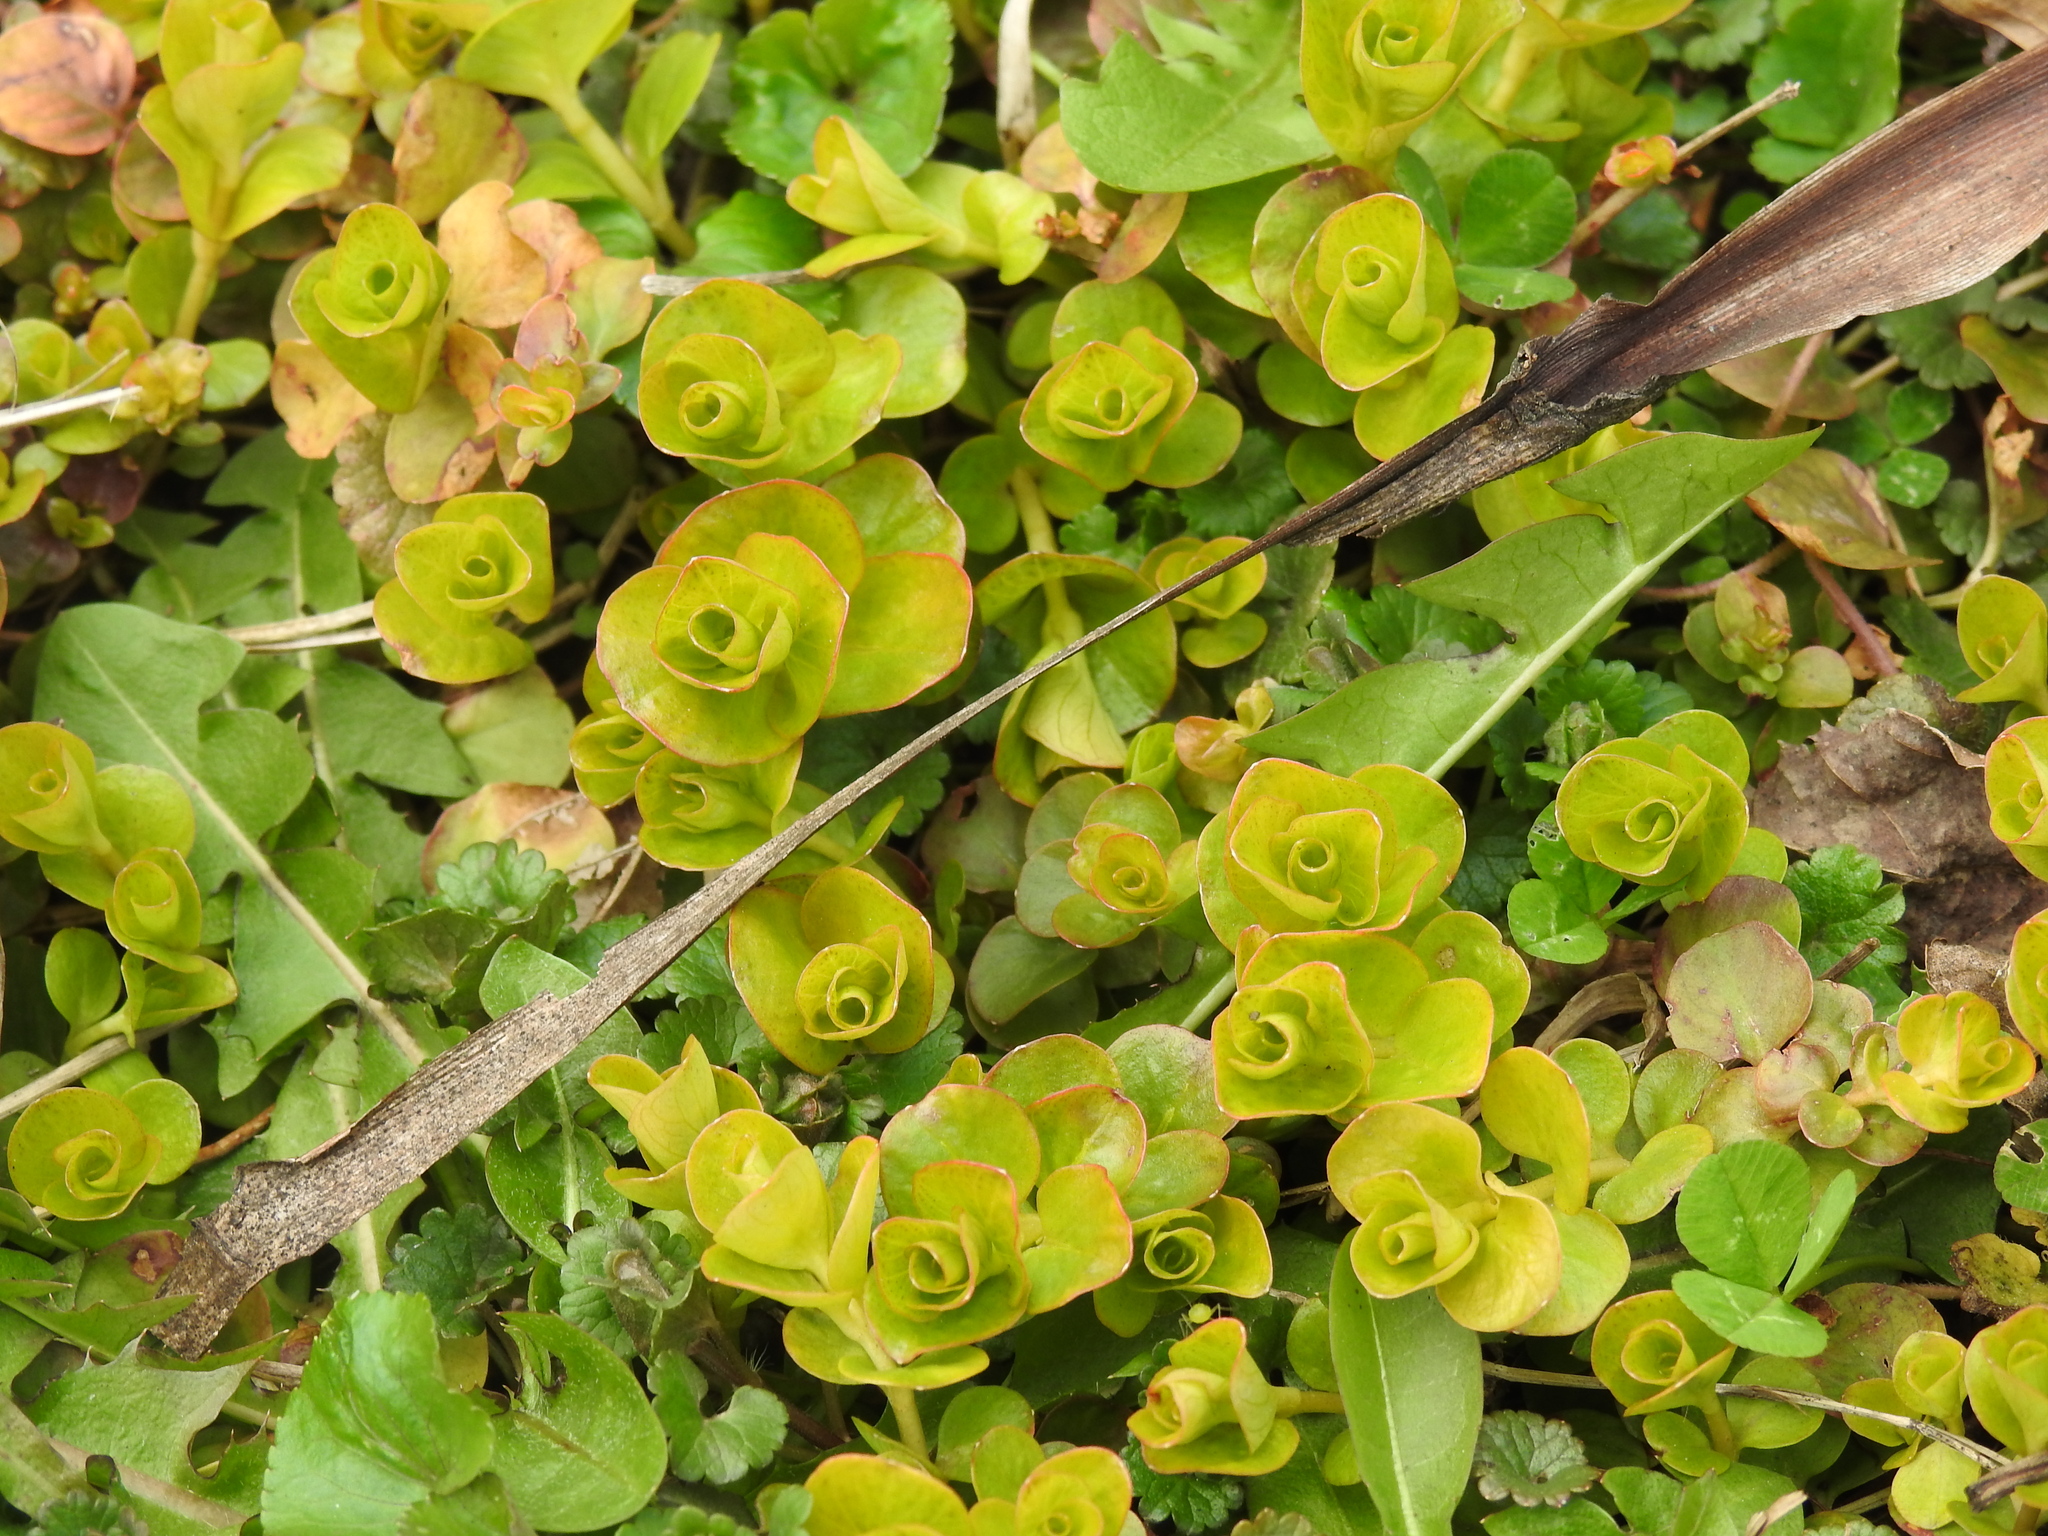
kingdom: Plantae
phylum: Tracheophyta
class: Magnoliopsida
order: Ericales
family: Primulaceae
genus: Lysimachia
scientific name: Lysimachia nummularia
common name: Moneywort
